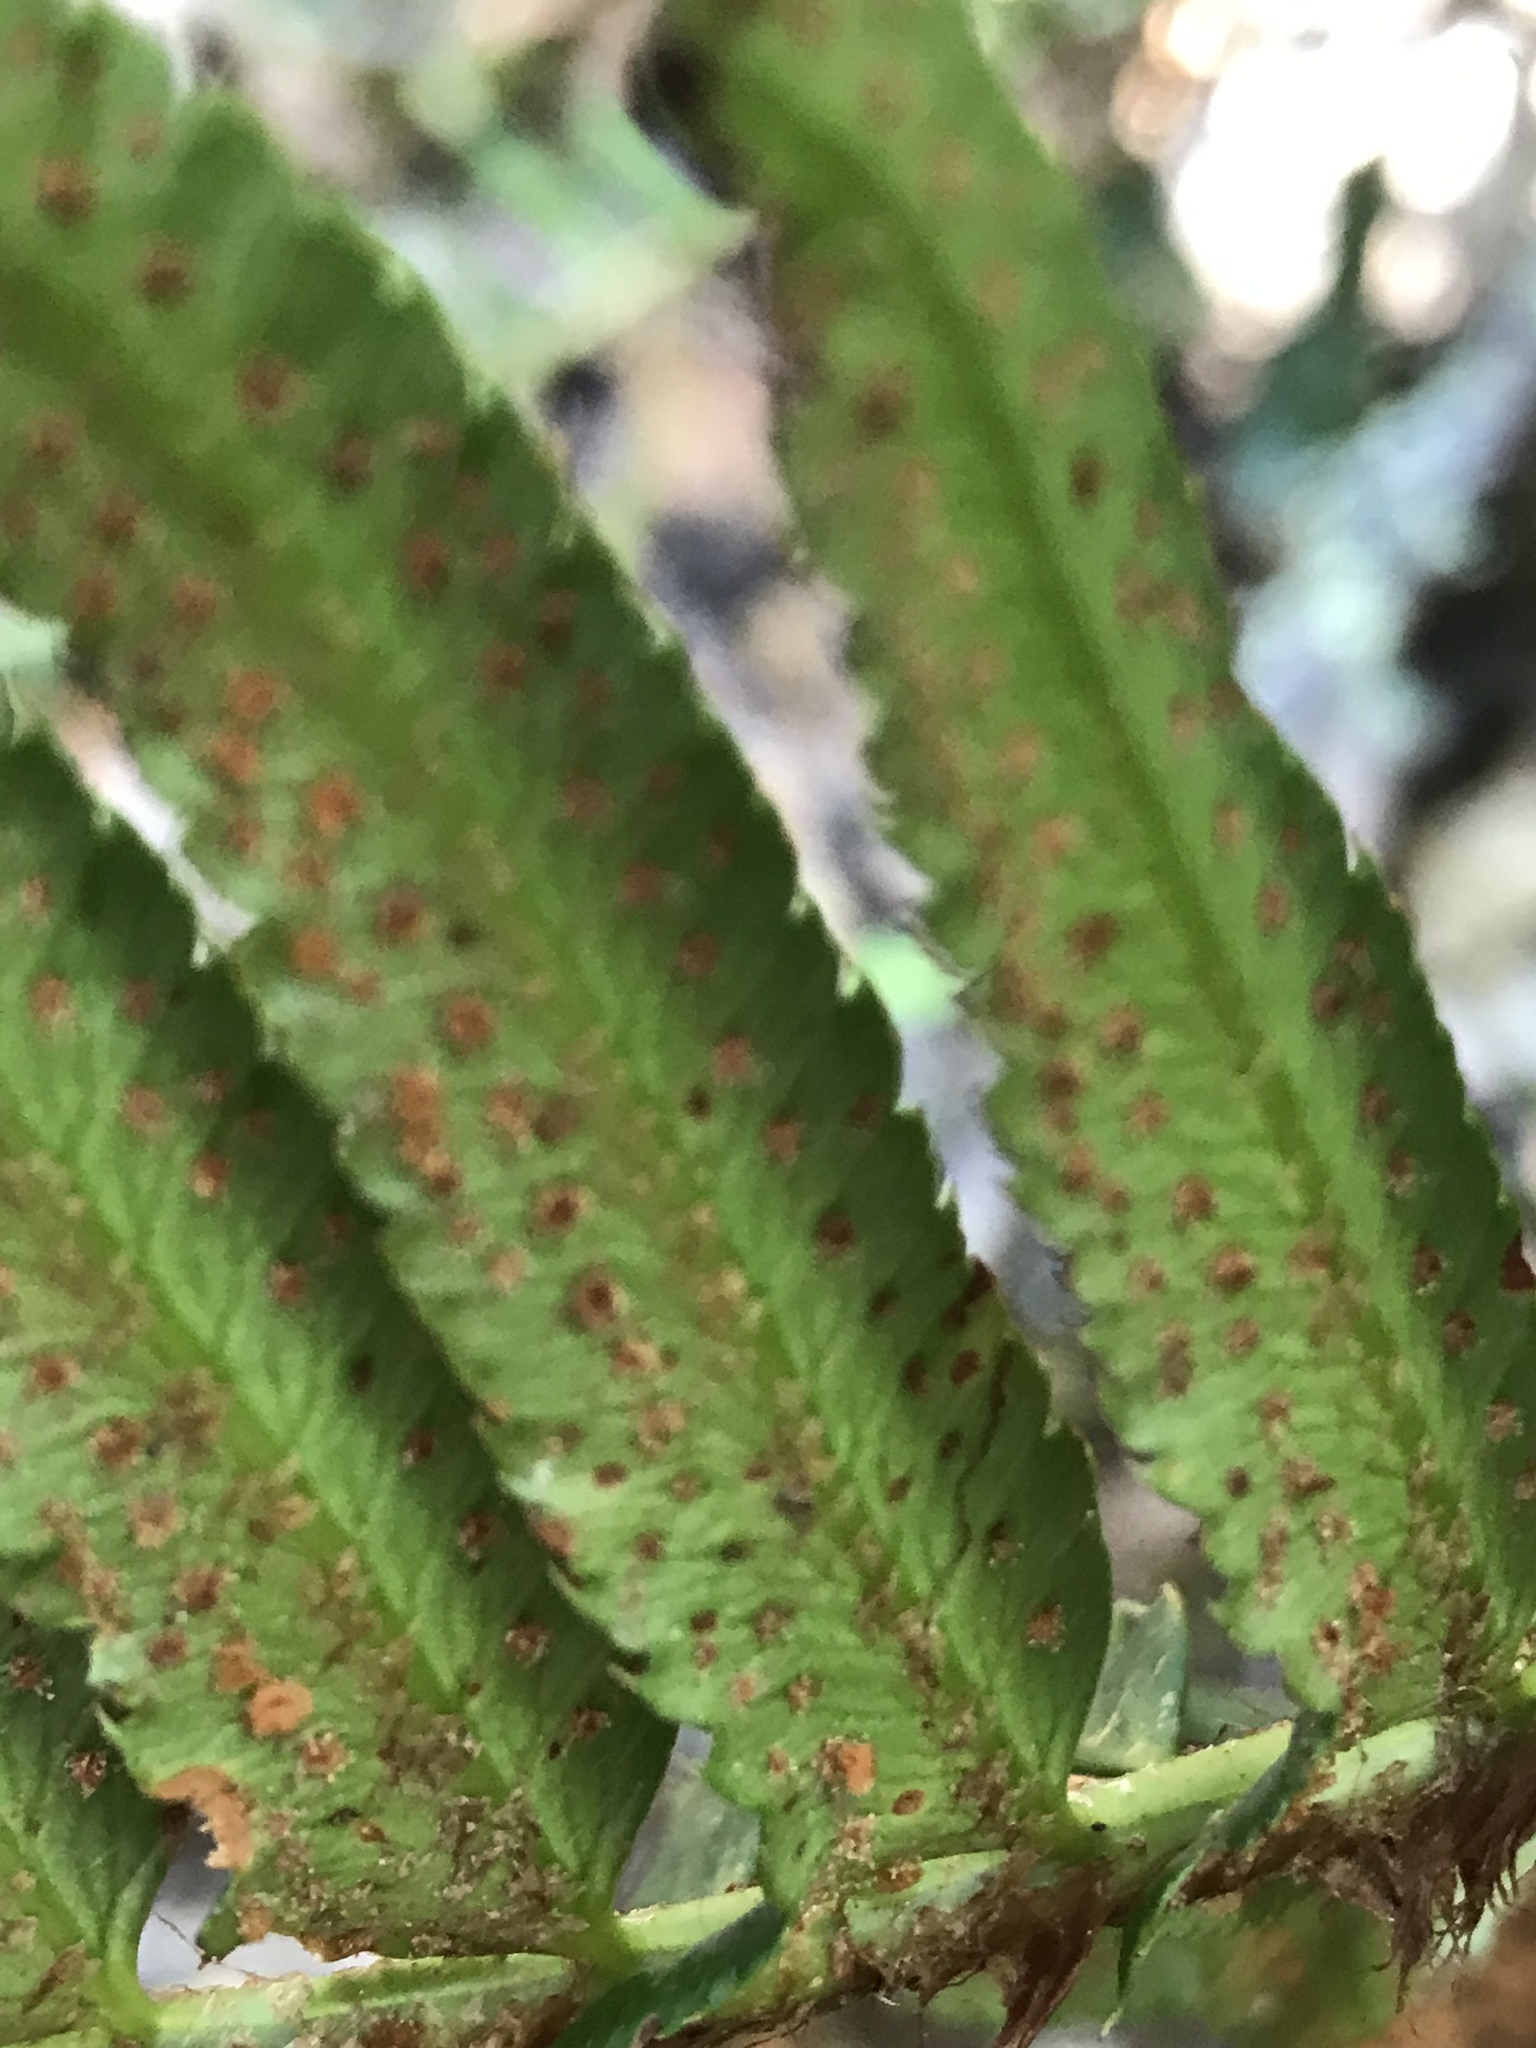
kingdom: Plantae
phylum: Tracheophyta
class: Polypodiopsida
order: Polypodiales
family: Dryopteridaceae
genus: Polystichum
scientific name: Polystichum munitum
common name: Western sword-fern
